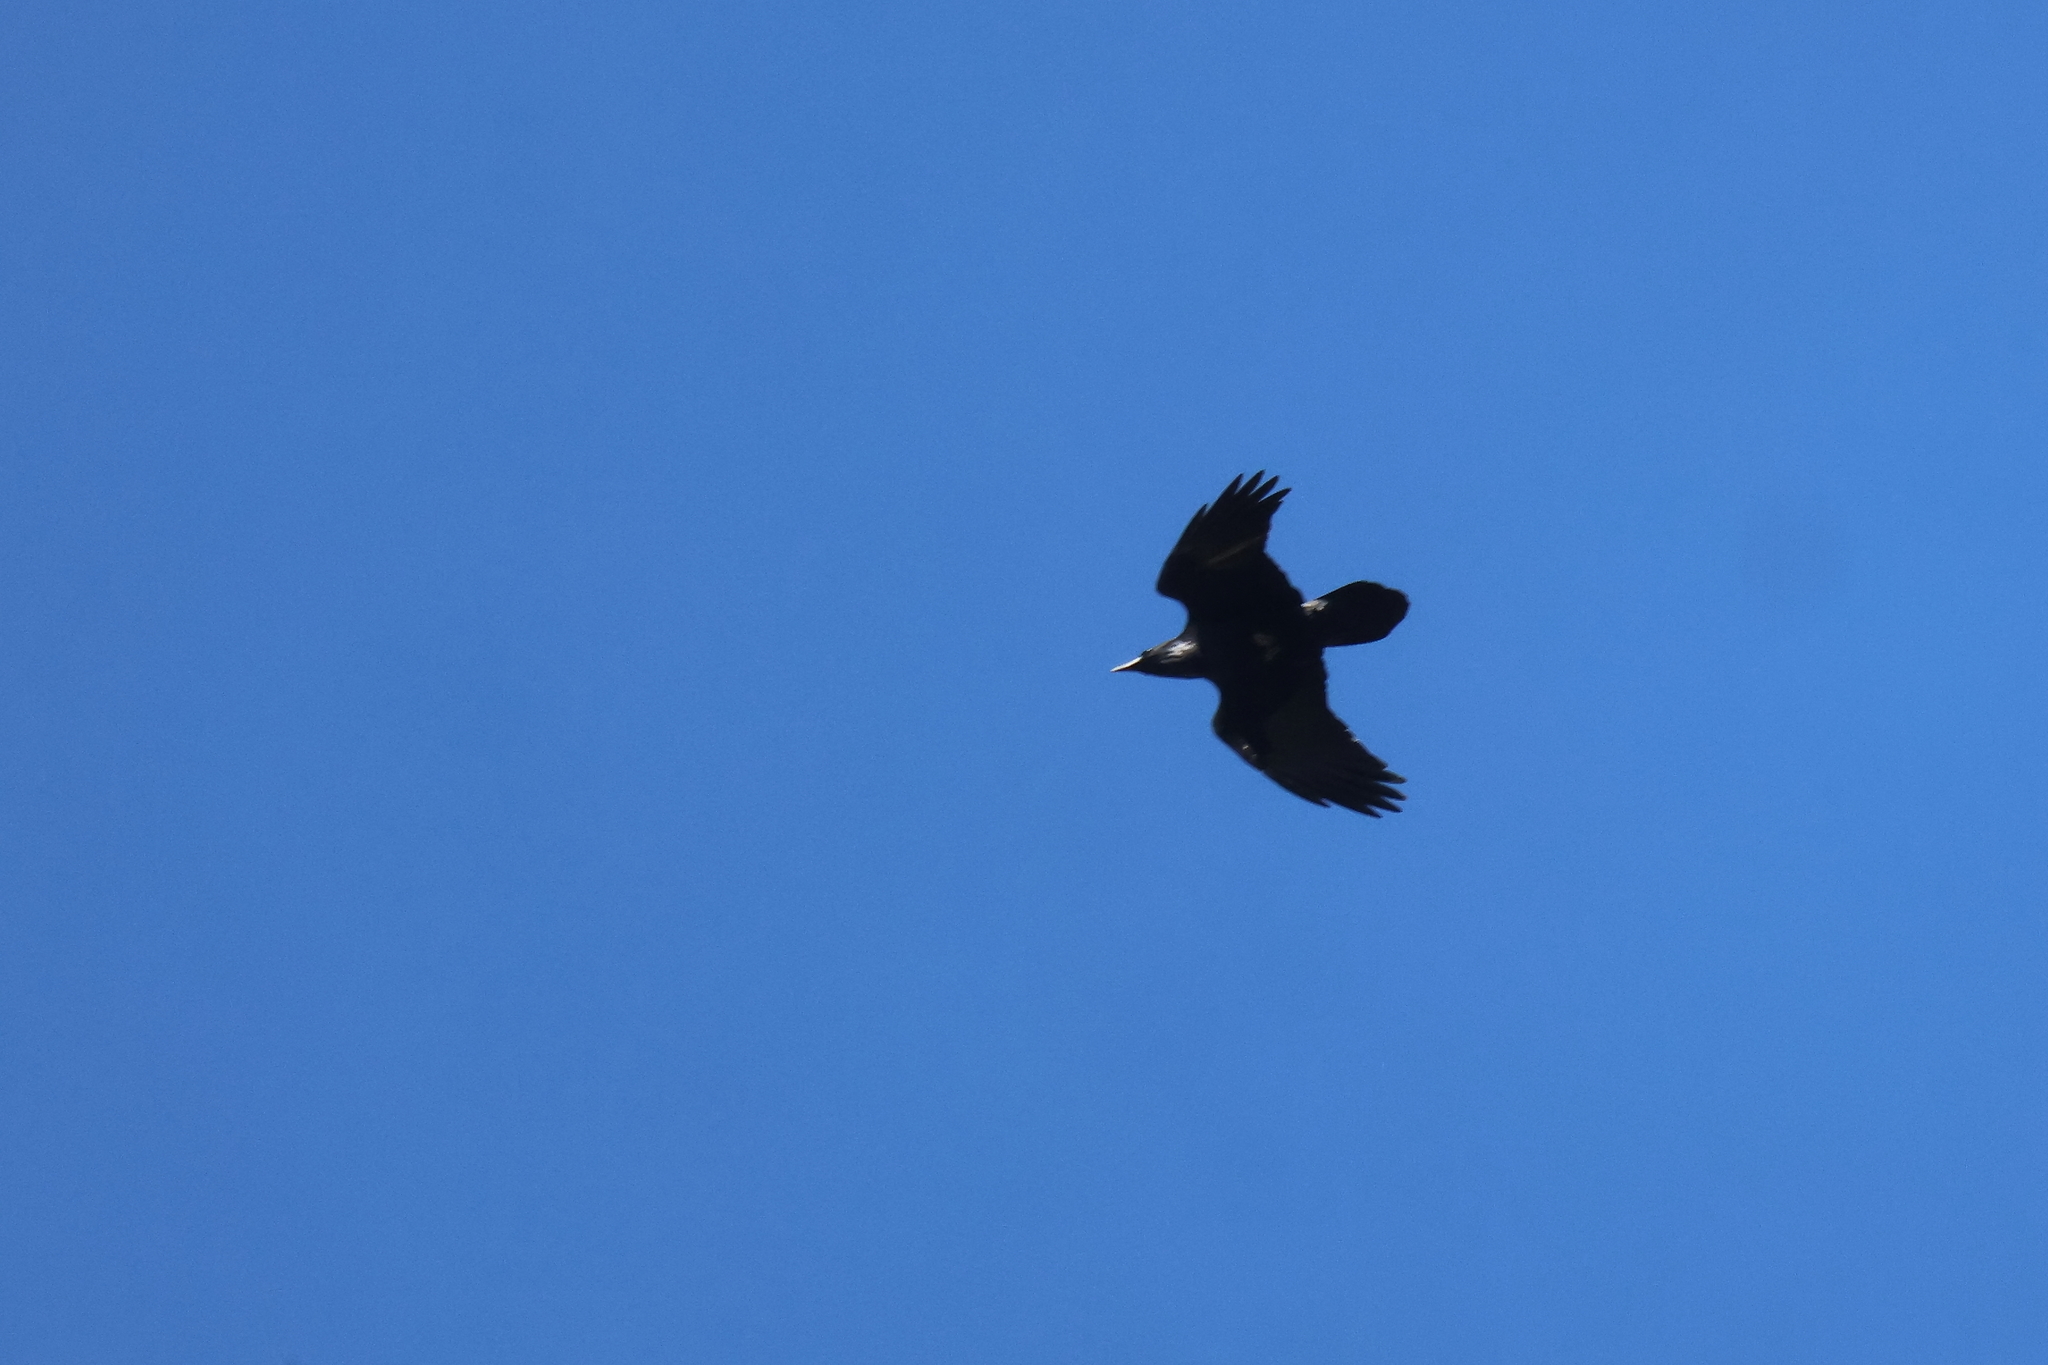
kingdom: Animalia
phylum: Chordata
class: Aves
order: Passeriformes
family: Corvidae
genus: Corvus
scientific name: Corvus corax
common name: Common raven
